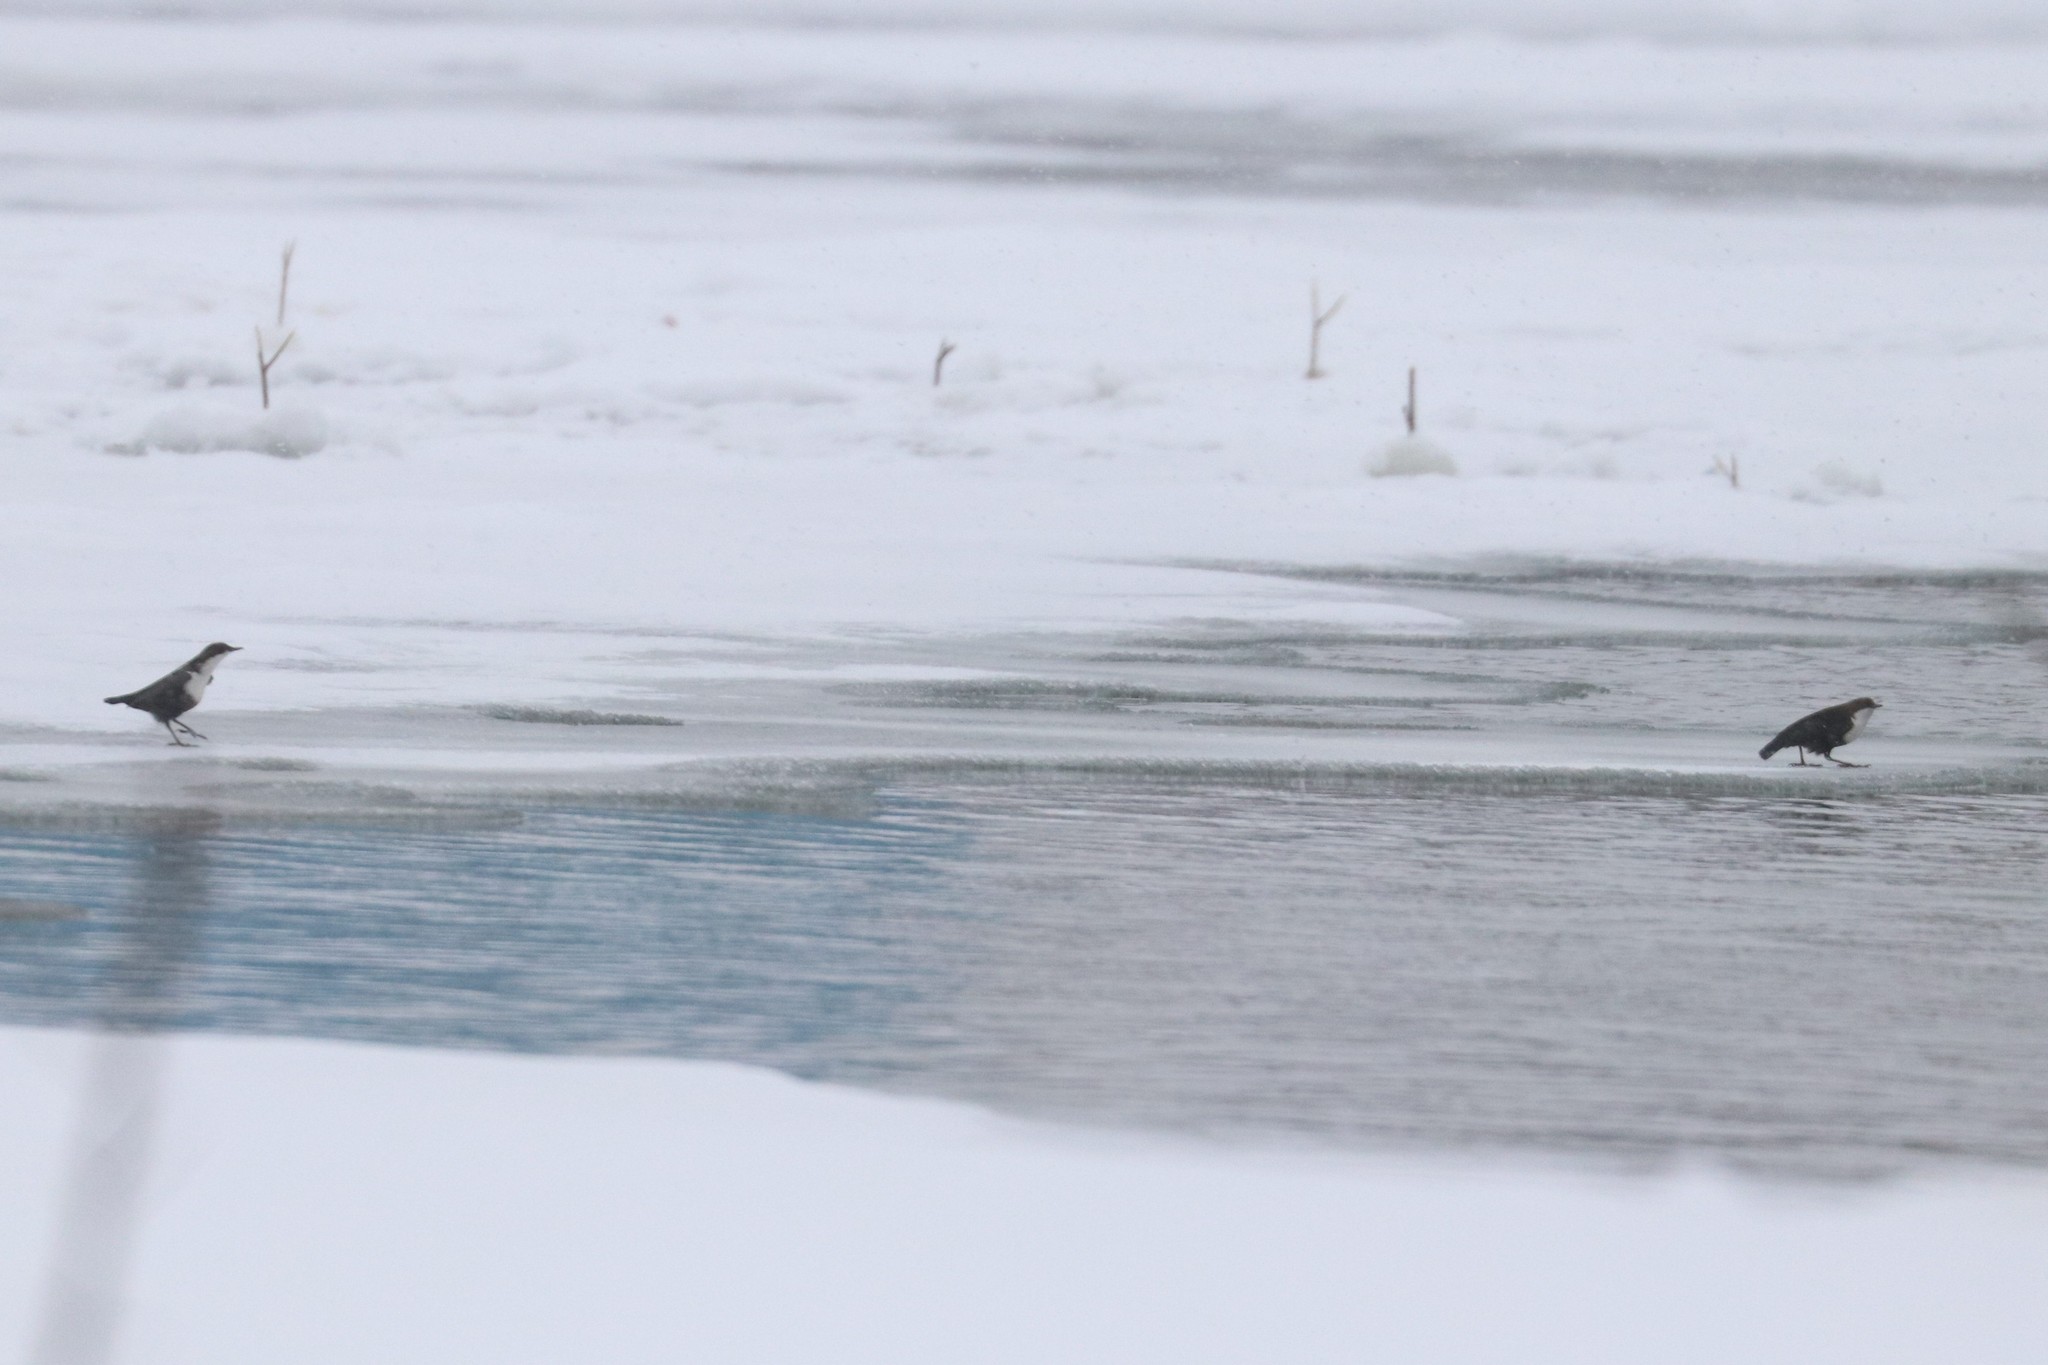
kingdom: Animalia
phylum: Chordata
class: Aves
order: Passeriformes
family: Cinclidae
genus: Cinclus
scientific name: Cinclus cinclus
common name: White-throated dipper
